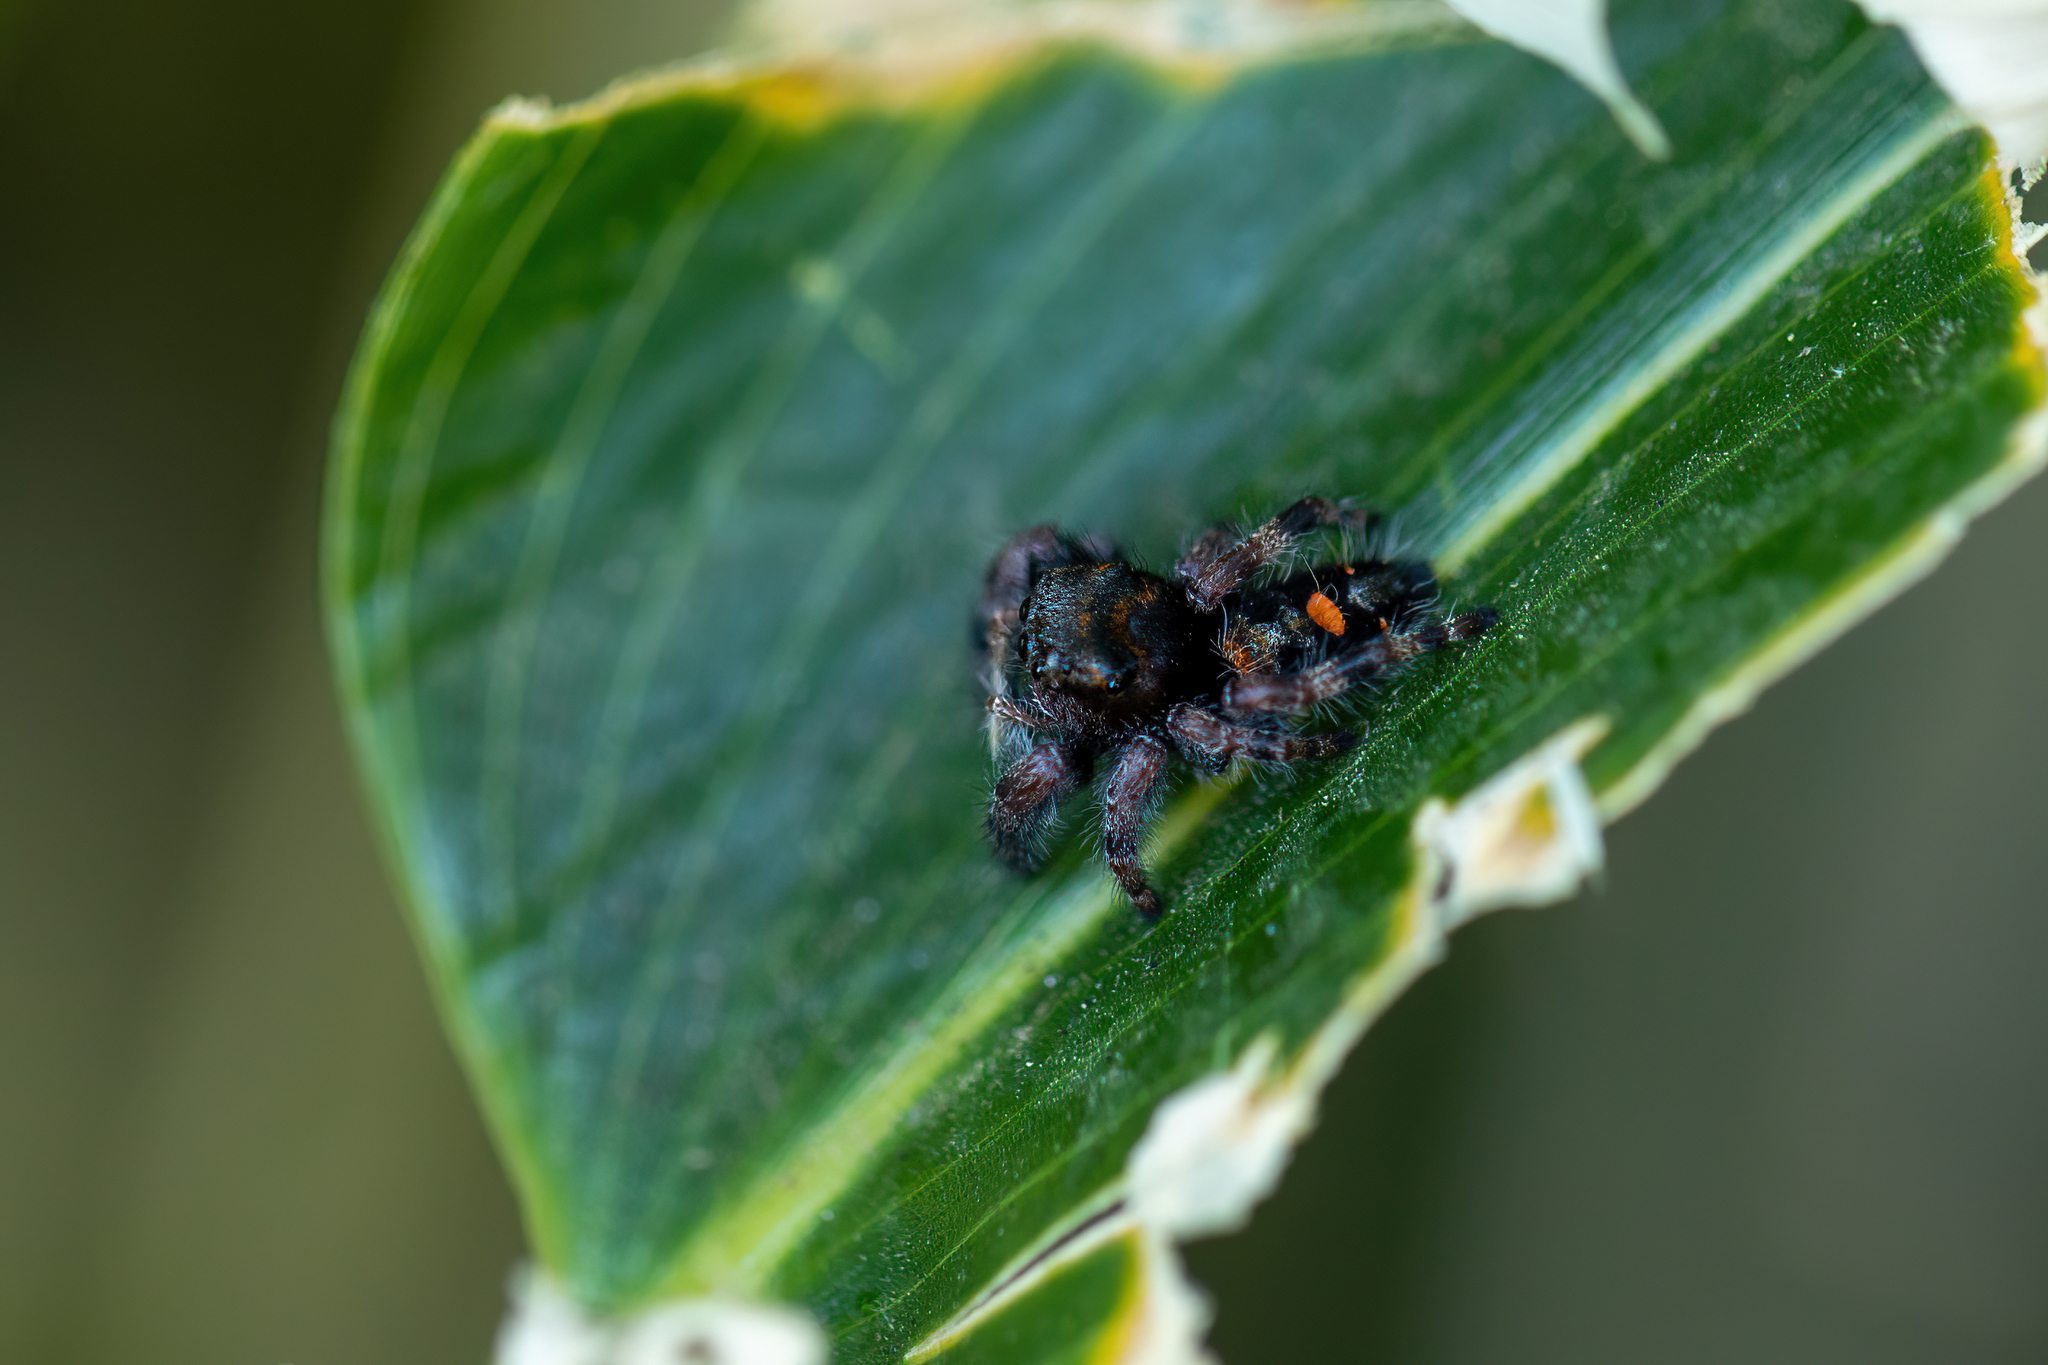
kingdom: Animalia
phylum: Arthropoda
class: Arachnida
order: Araneae
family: Salticidae
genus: Phidippus
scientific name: Phidippus audax
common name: Bold jumper
